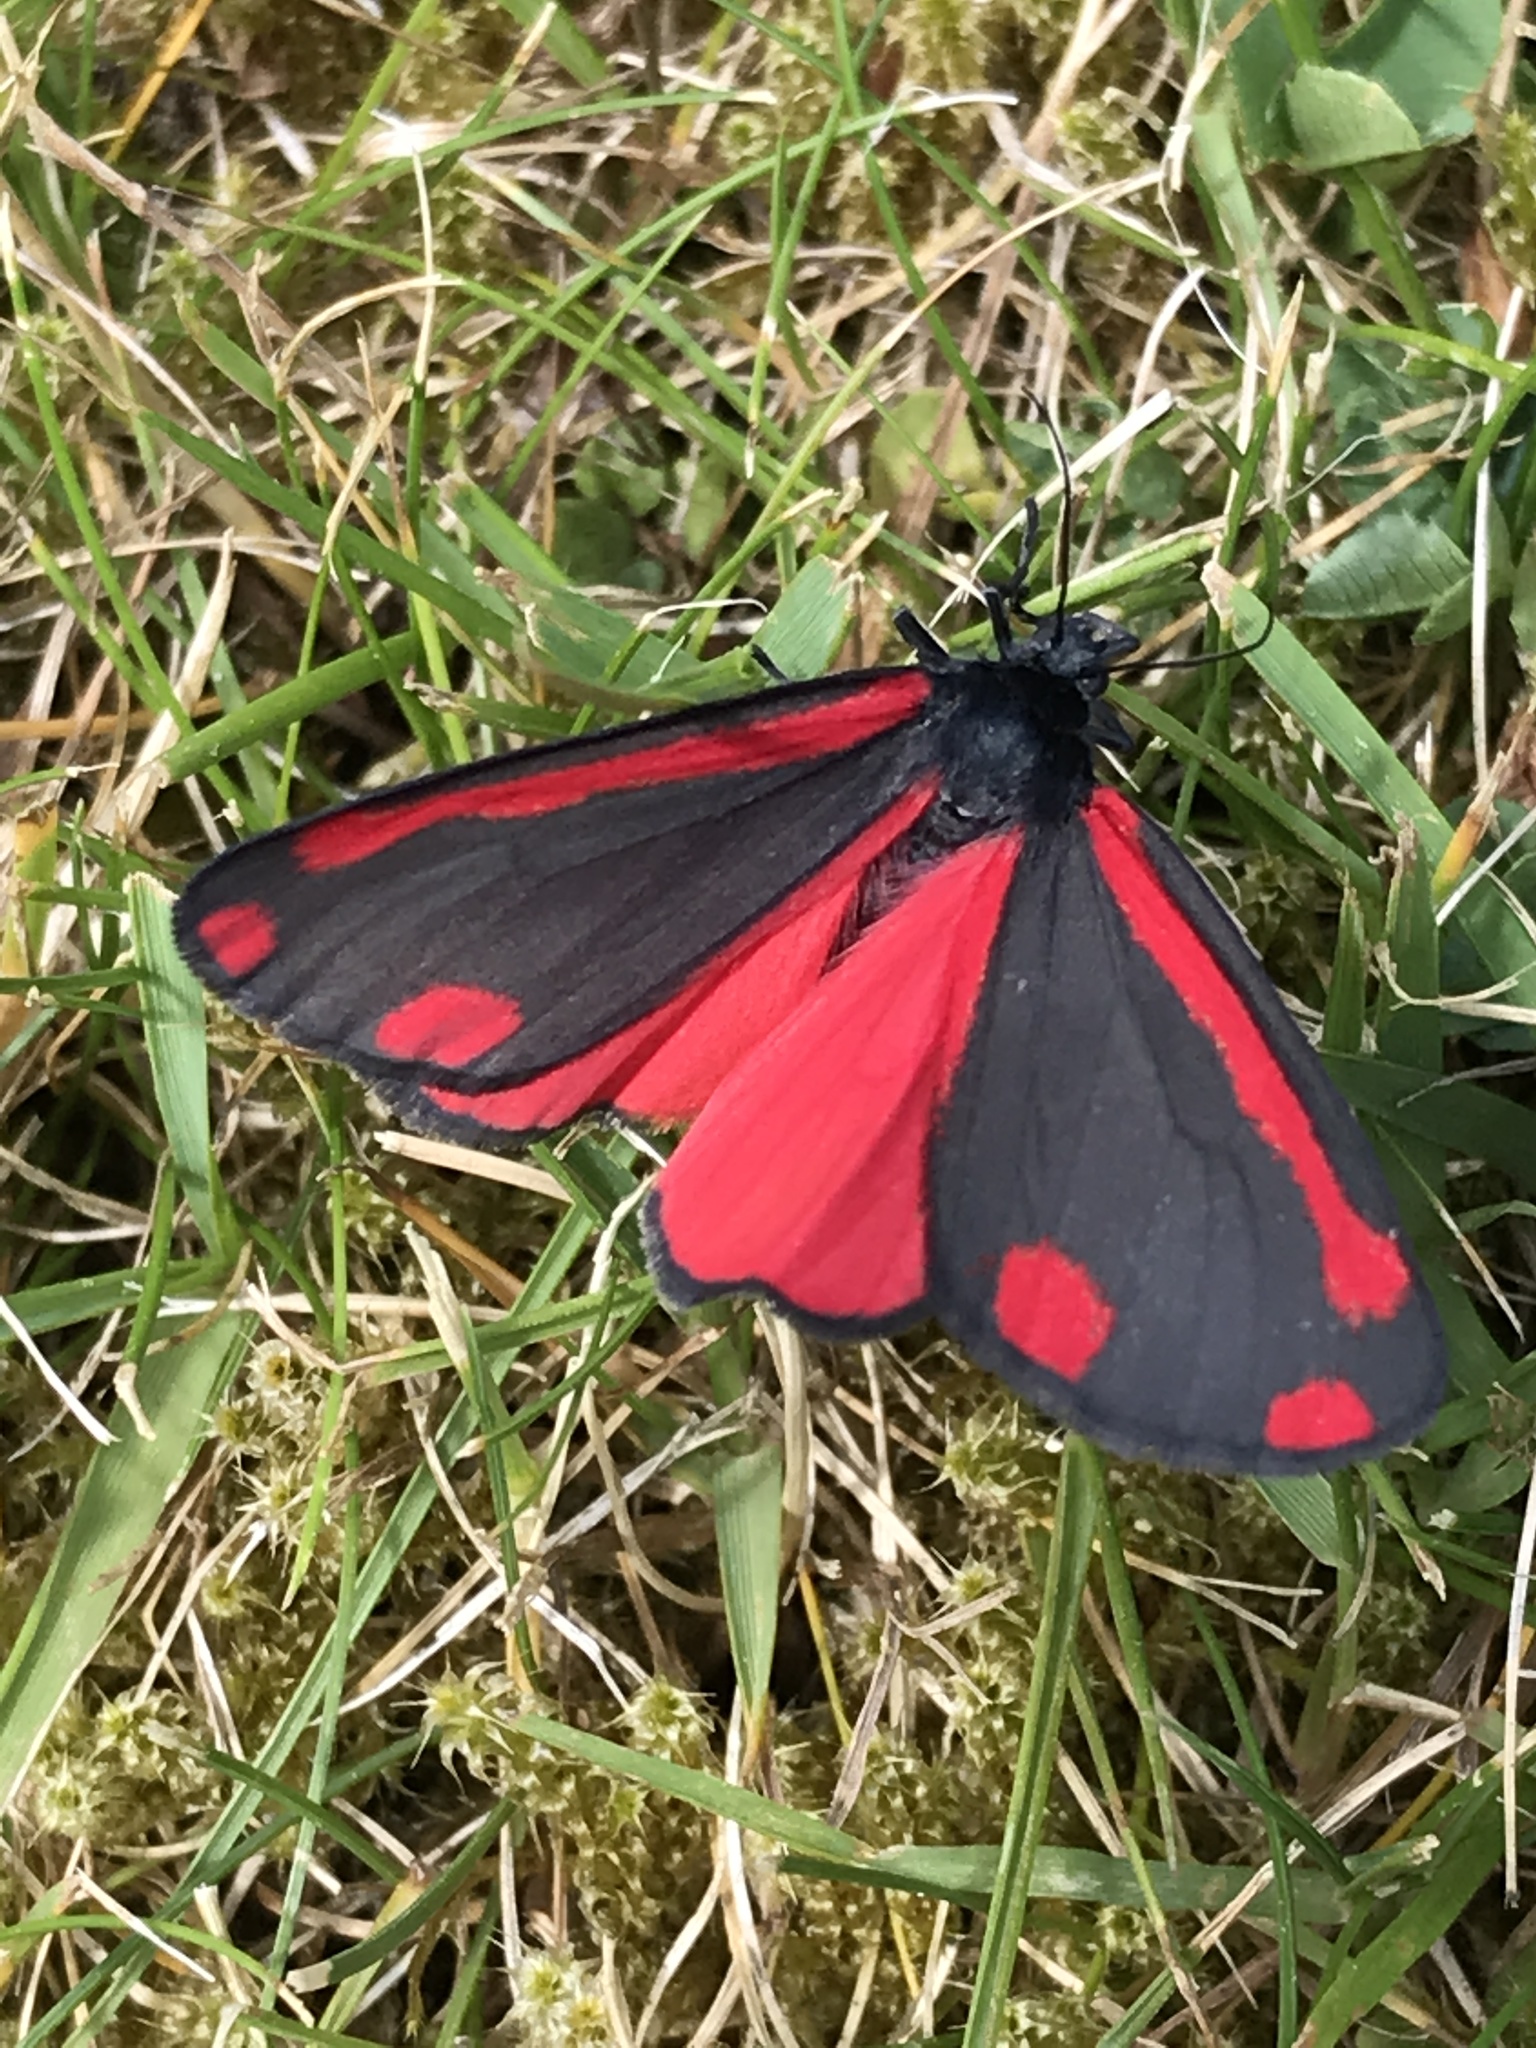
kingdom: Animalia
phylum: Arthropoda
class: Insecta
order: Lepidoptera
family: Erebidae
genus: Tyria
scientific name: Tyria jacobaeae
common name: Cinnabar
